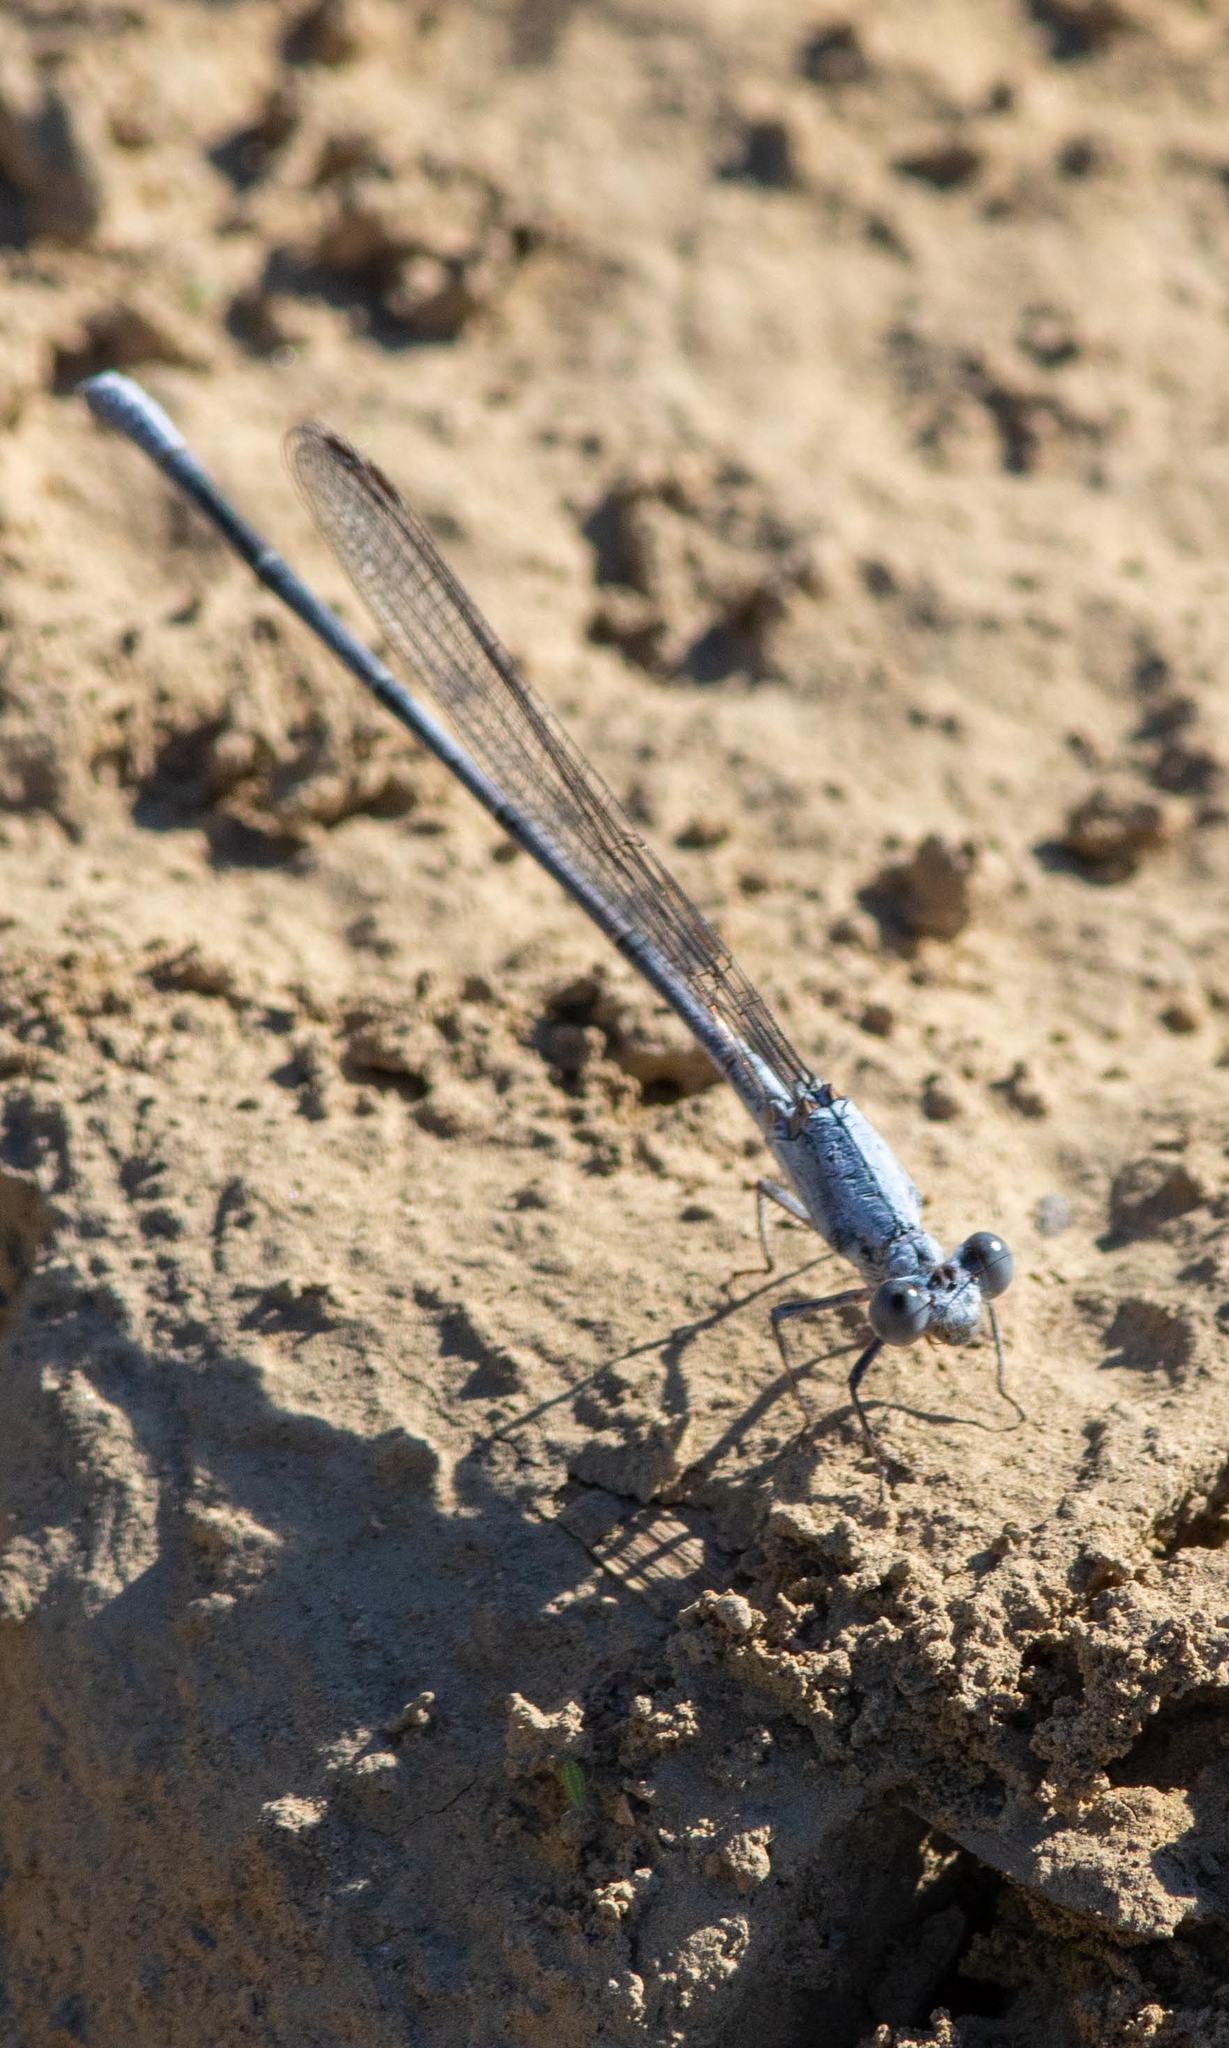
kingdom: Animalia
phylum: Arthropoda
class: Insecta
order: Odonata
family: Coenagrionidae
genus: Argia
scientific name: Argia moesta
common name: Powdered dancer
